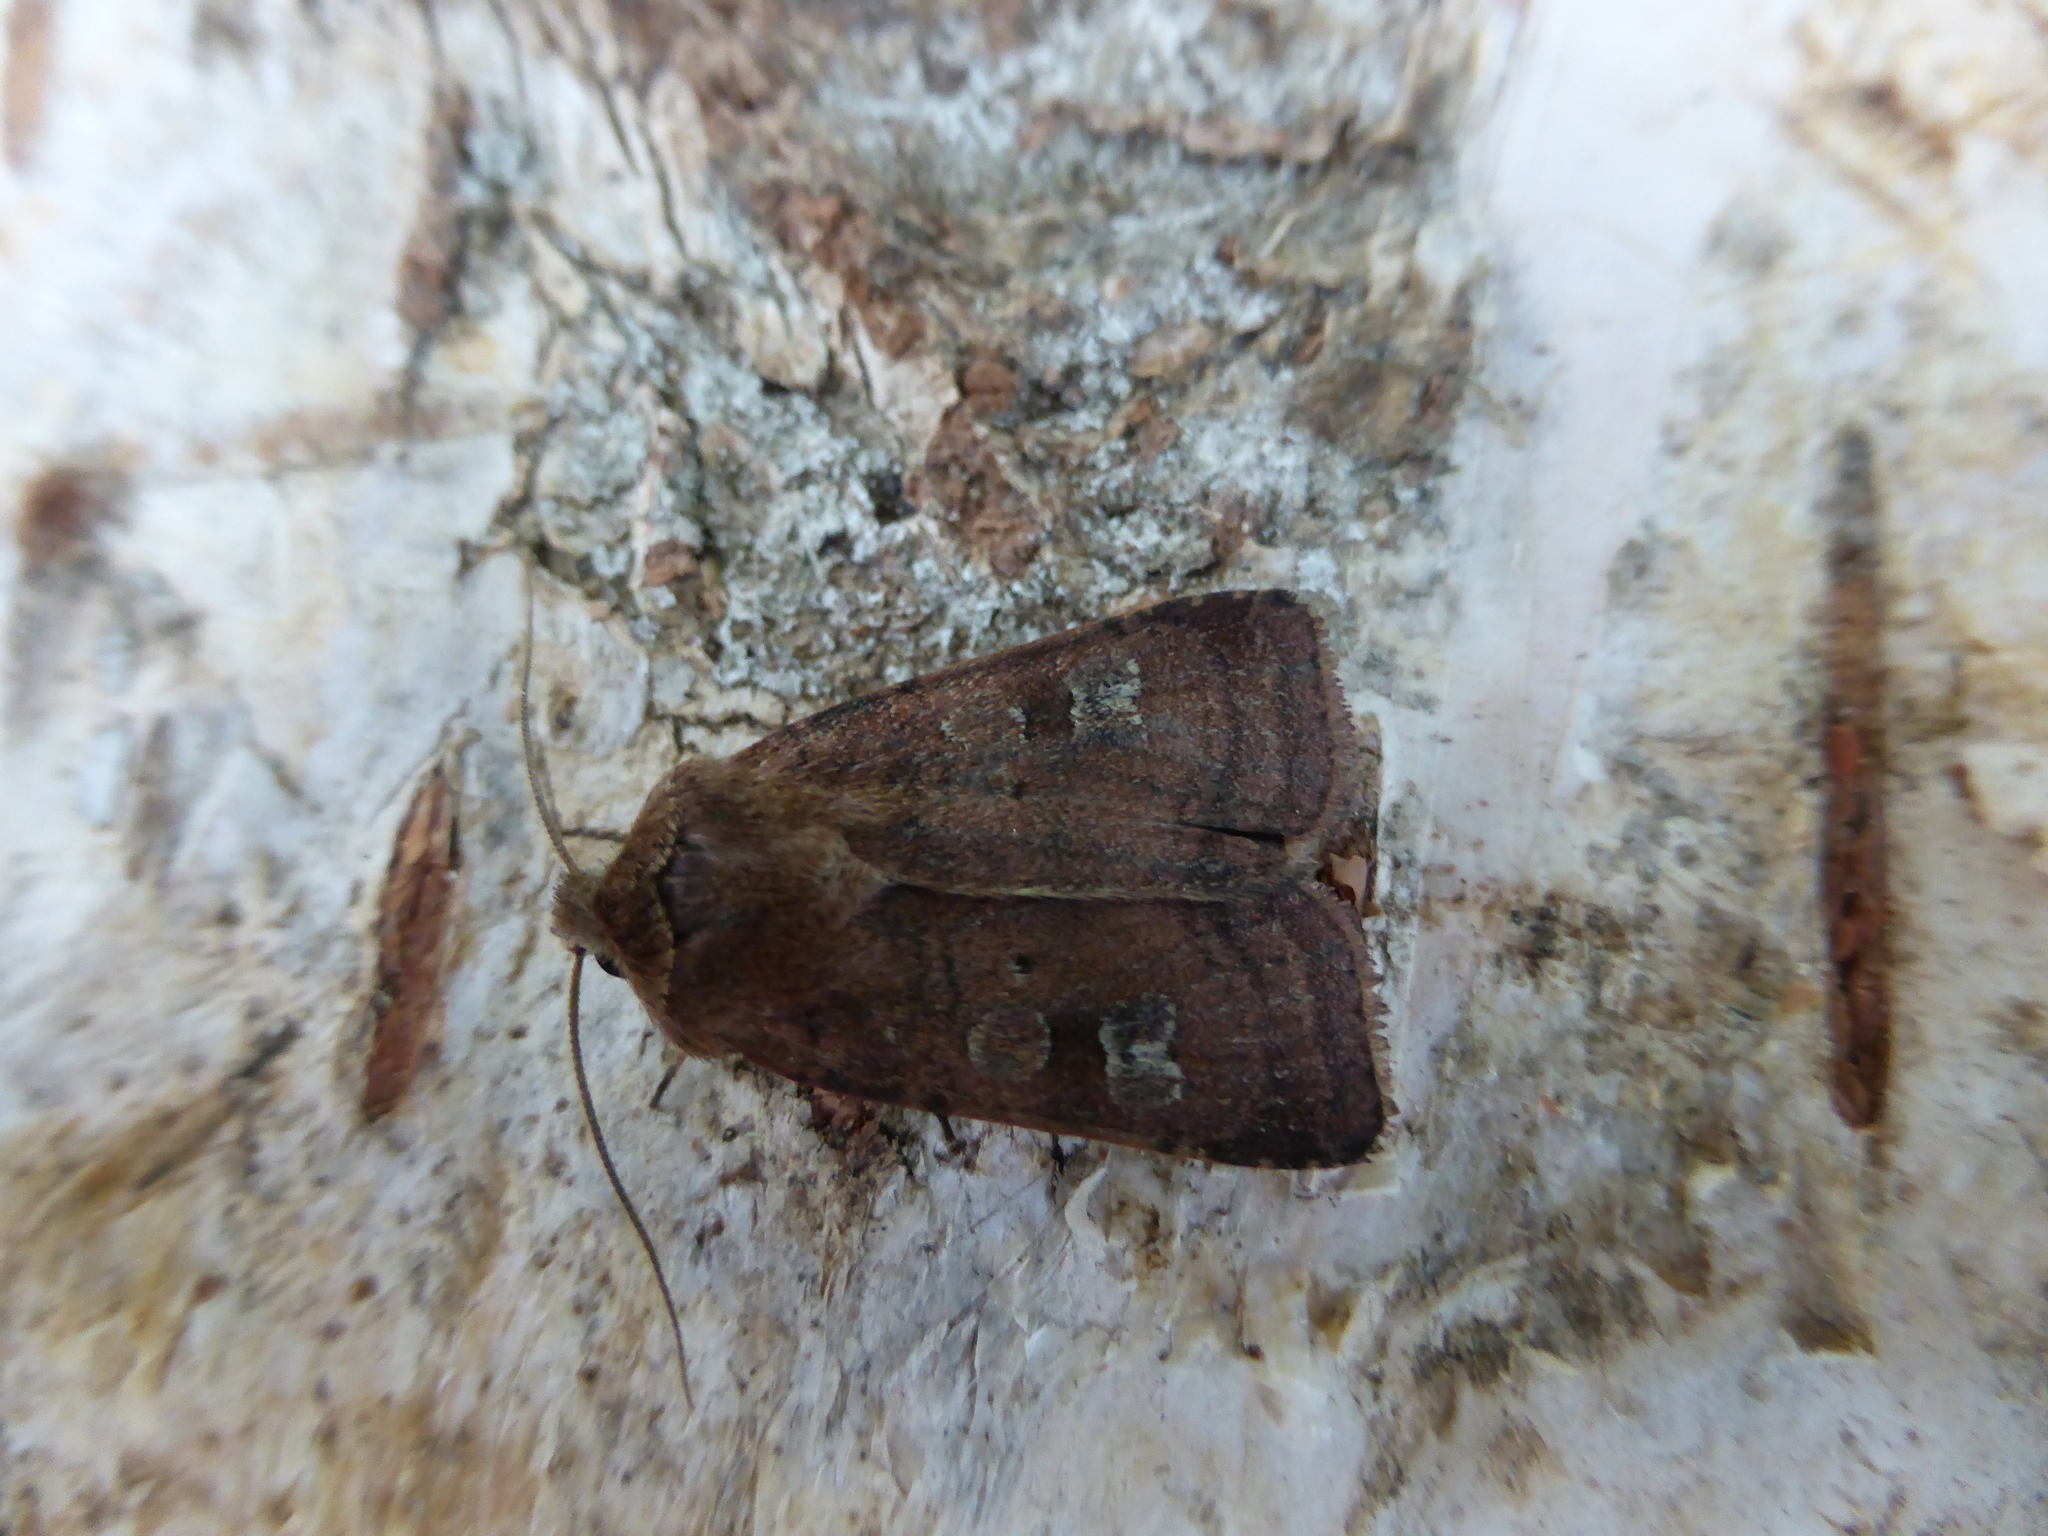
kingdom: Animalia
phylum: Arthropoda
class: Insecta
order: Lepidoptera
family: Noctuidae
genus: Diarsia
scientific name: Diarsia rubi
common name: Small square-spot
